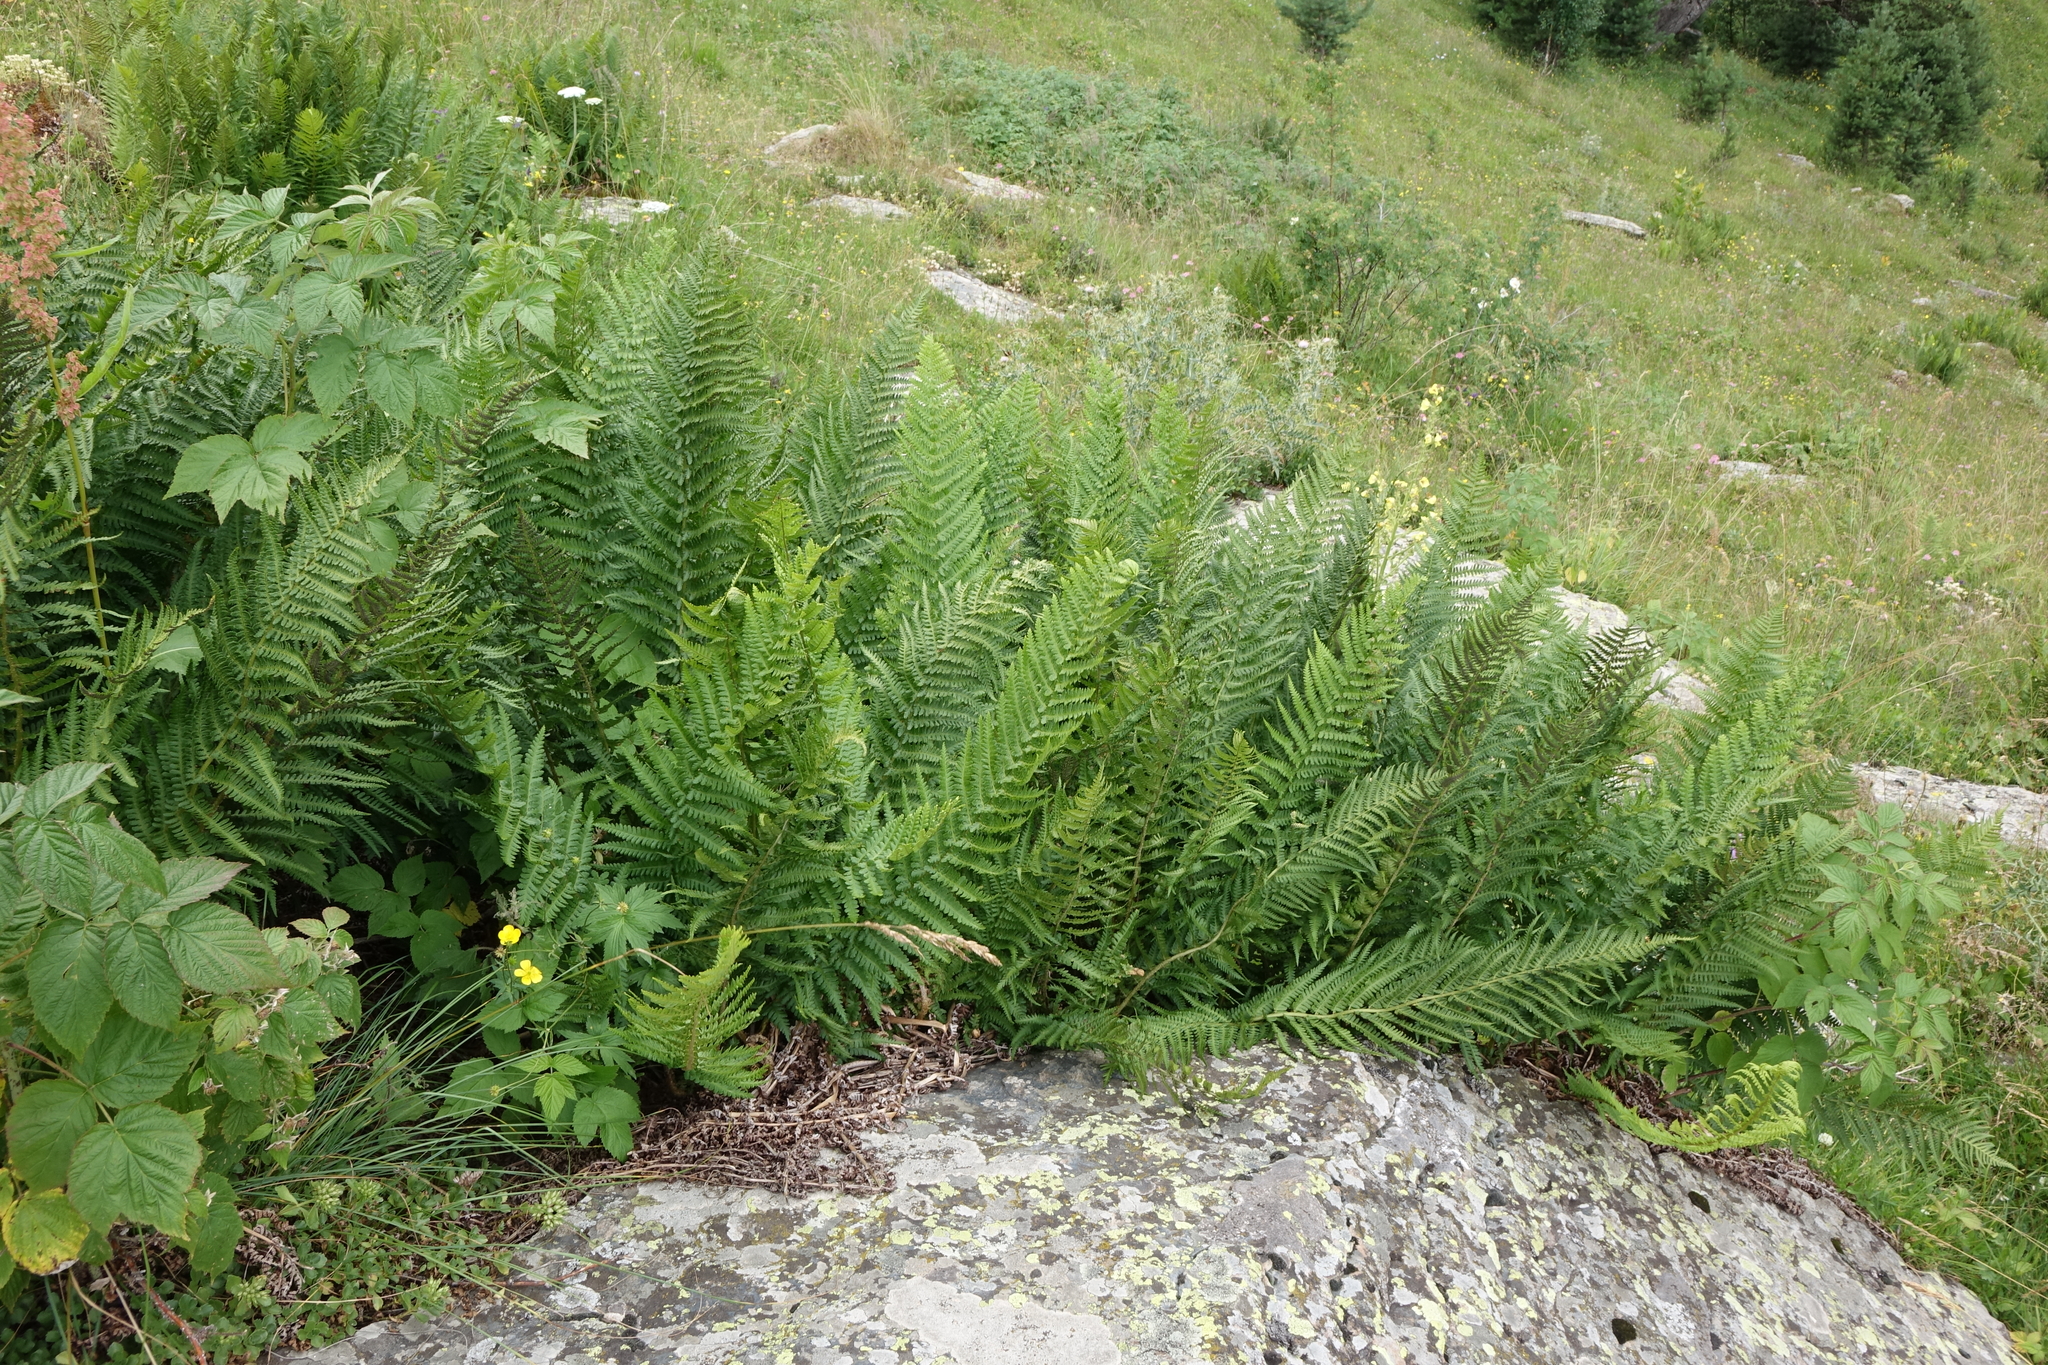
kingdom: Plantae
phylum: Tracheophyta
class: Polypodiopsida
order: Polypodiales
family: Dryopteridaceae
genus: Dryopteris
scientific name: Dryopteris filix-mas
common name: Male fern
